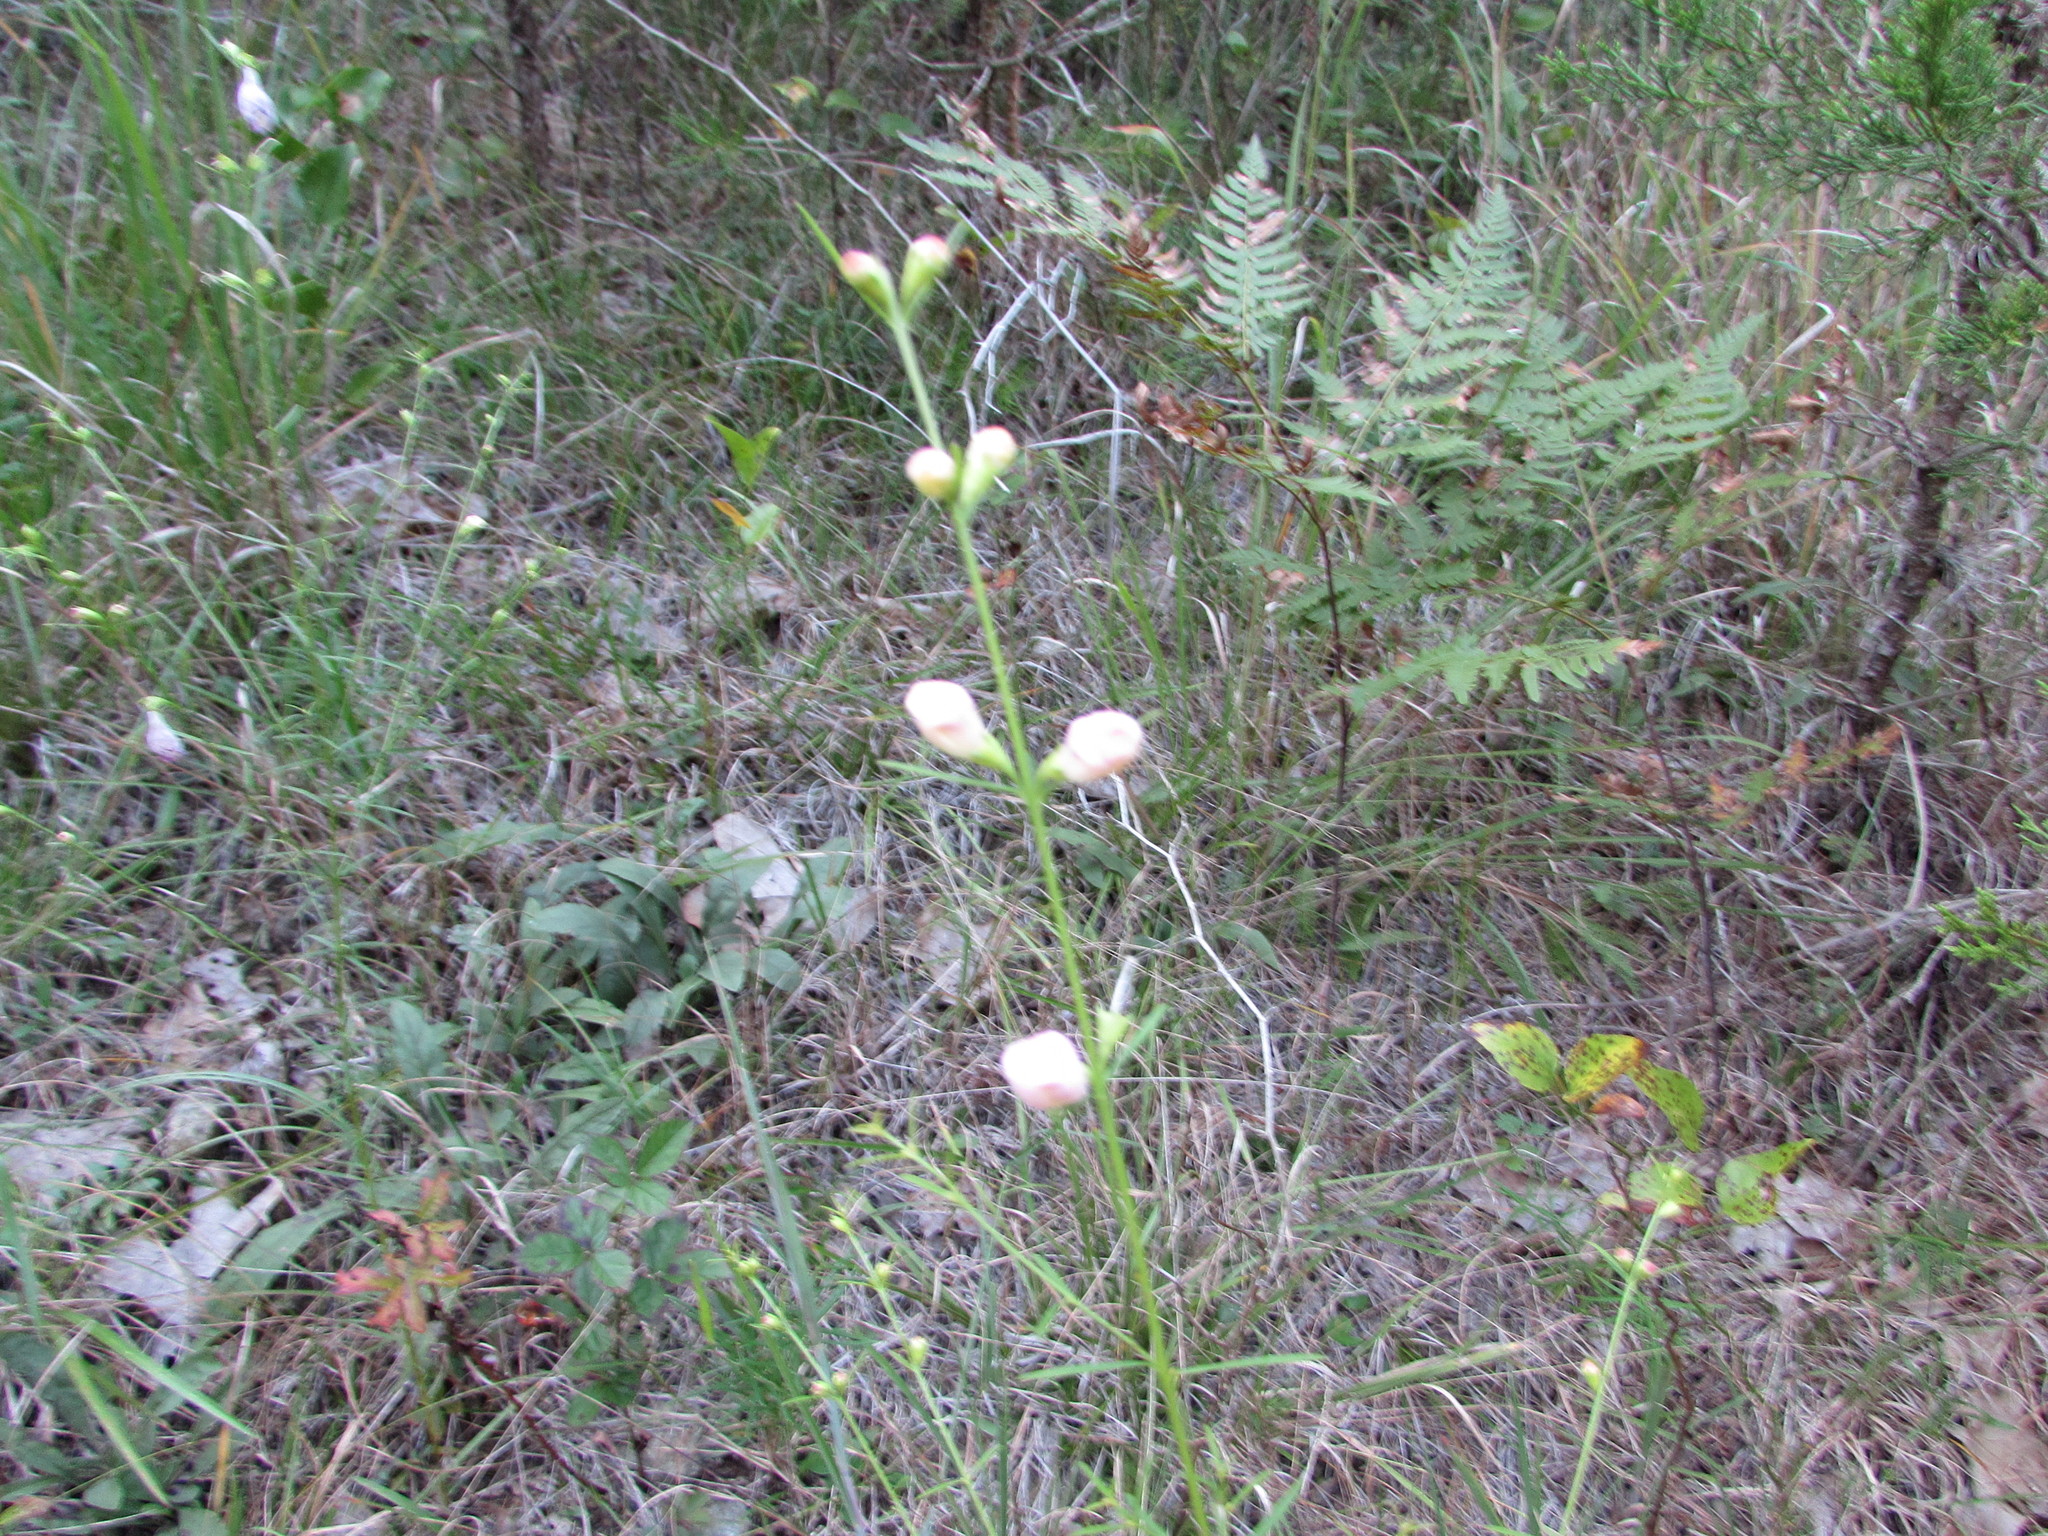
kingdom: Plantae
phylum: Tracheophyta
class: Magnoliopsida
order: Lamiales
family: Orobanchaceae
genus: Agalinis
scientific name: Agalinis purpurea
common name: Purple false foxglove
